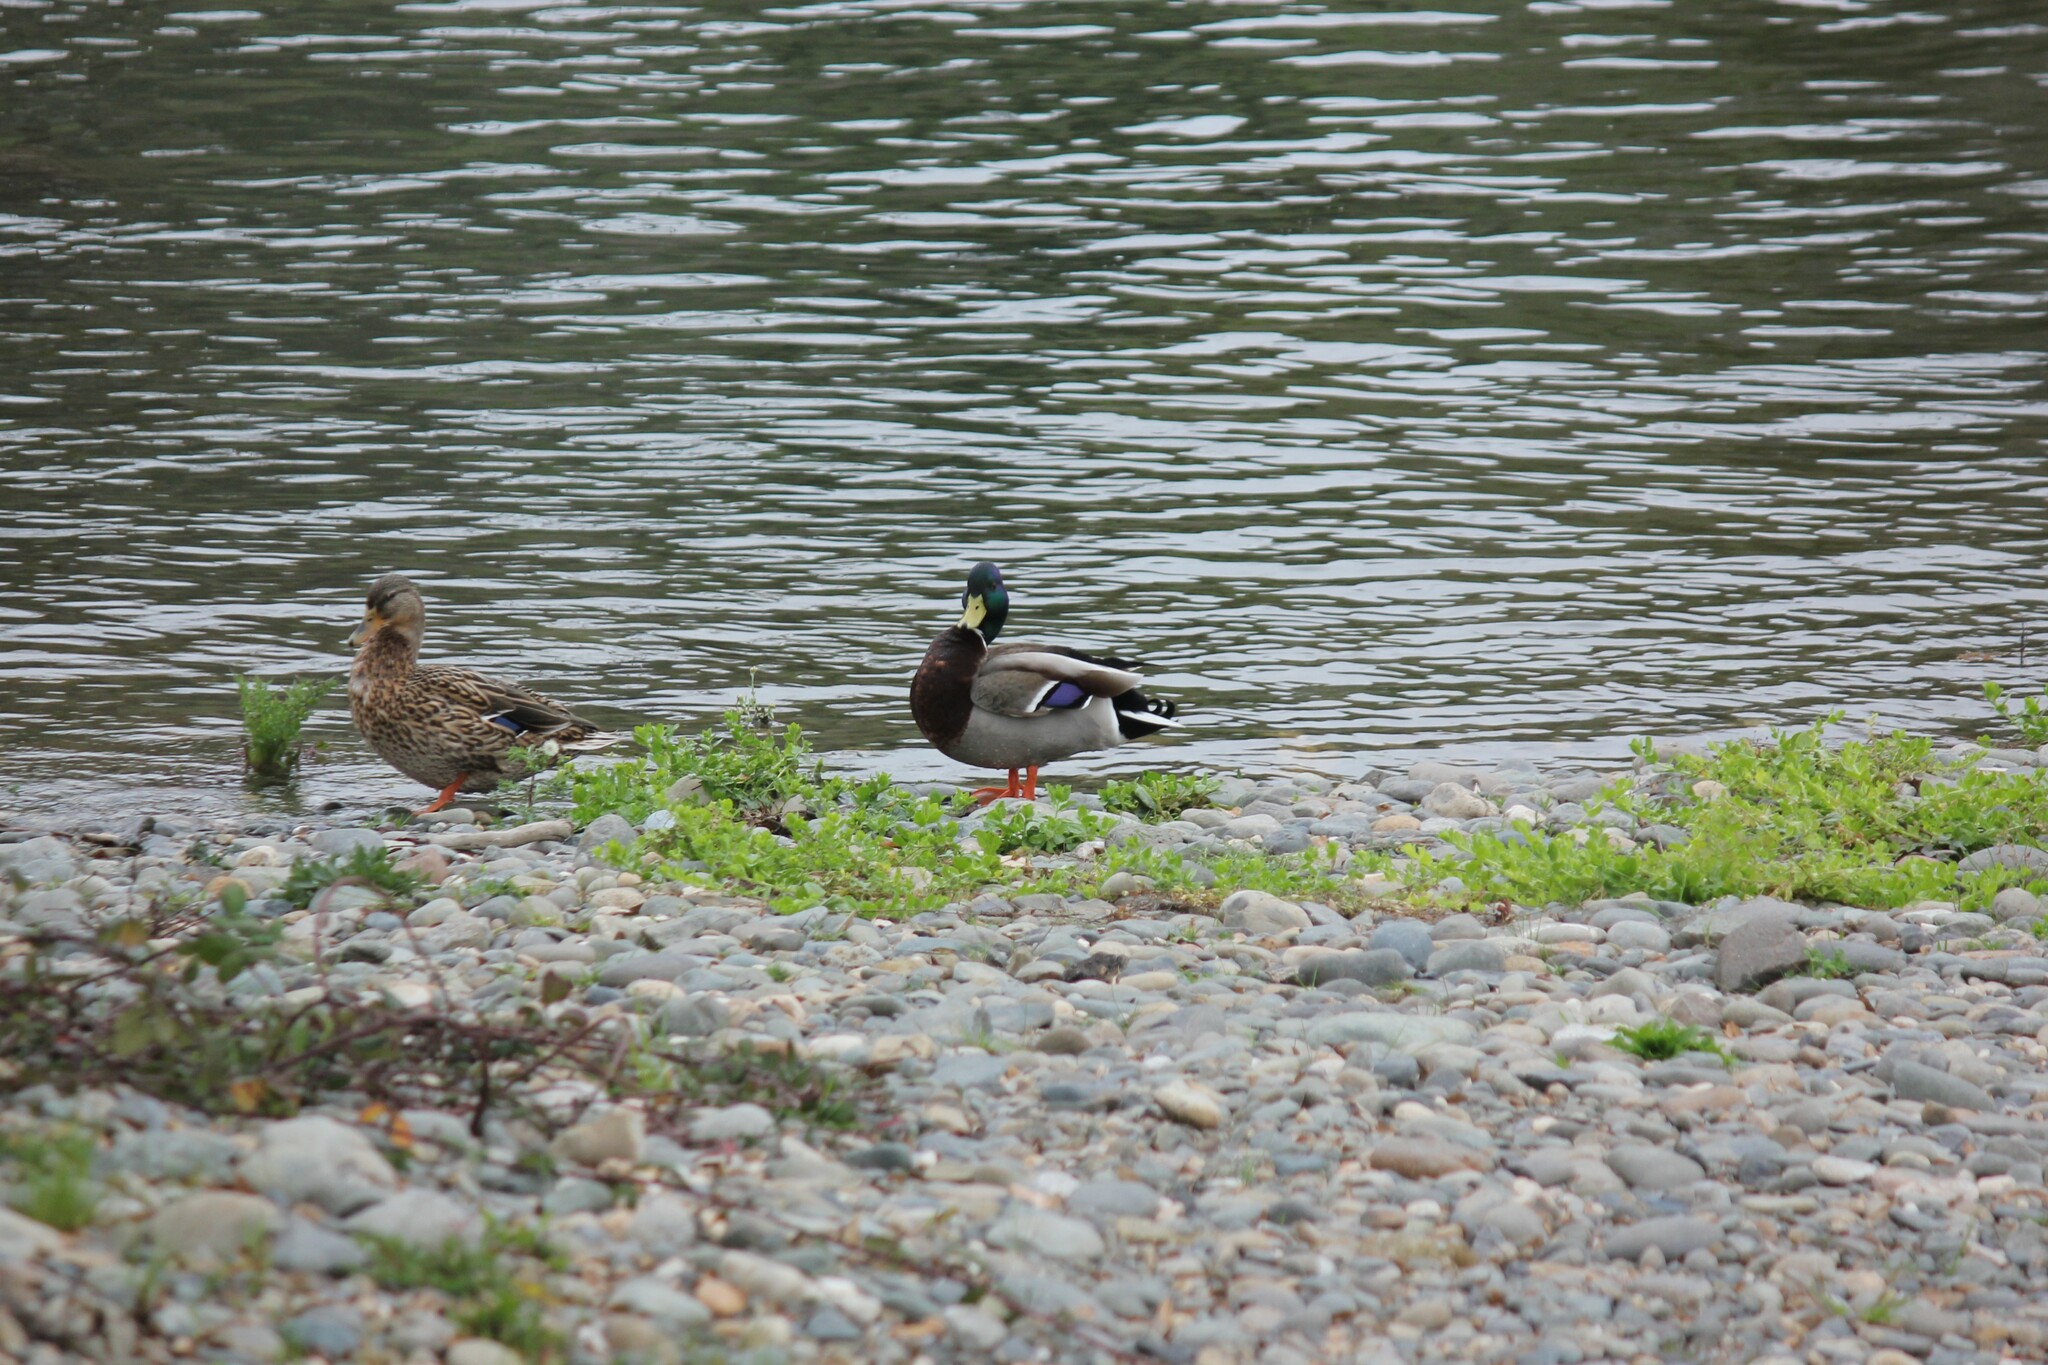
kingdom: Animalia
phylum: Chordata
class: Aves
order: Anseriformes
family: Anatidae
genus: Anas
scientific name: Anas platyrhynchos
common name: Mallard
